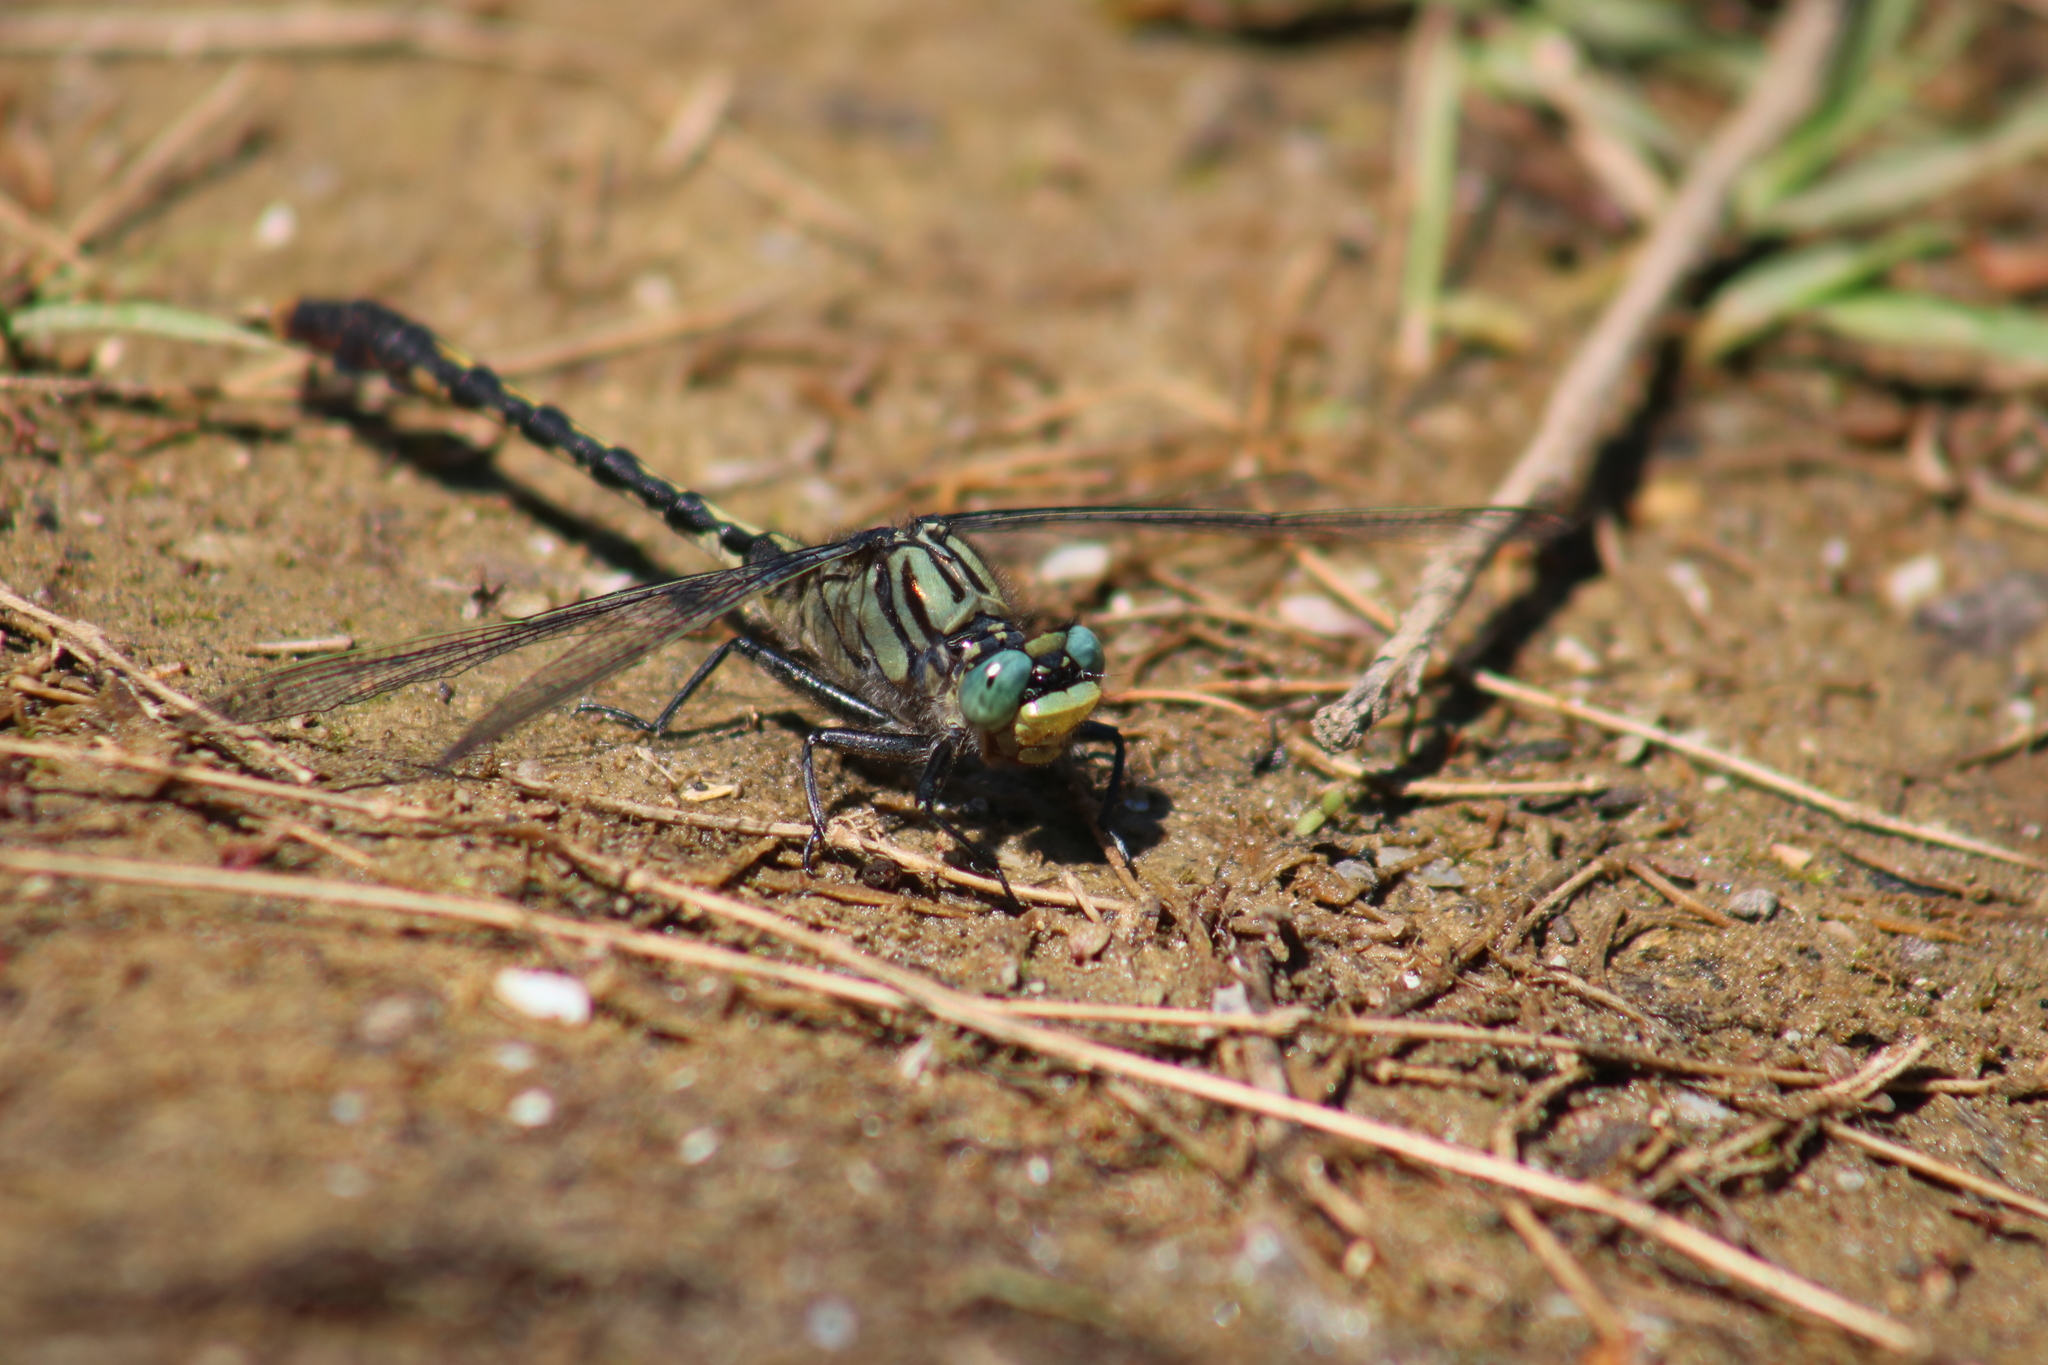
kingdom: Animalia
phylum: Arthropoda
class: Insecta
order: Odonata
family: Gomphidae
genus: Arigomphus
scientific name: Arigomphus villosipes
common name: Unicorn clubtail
